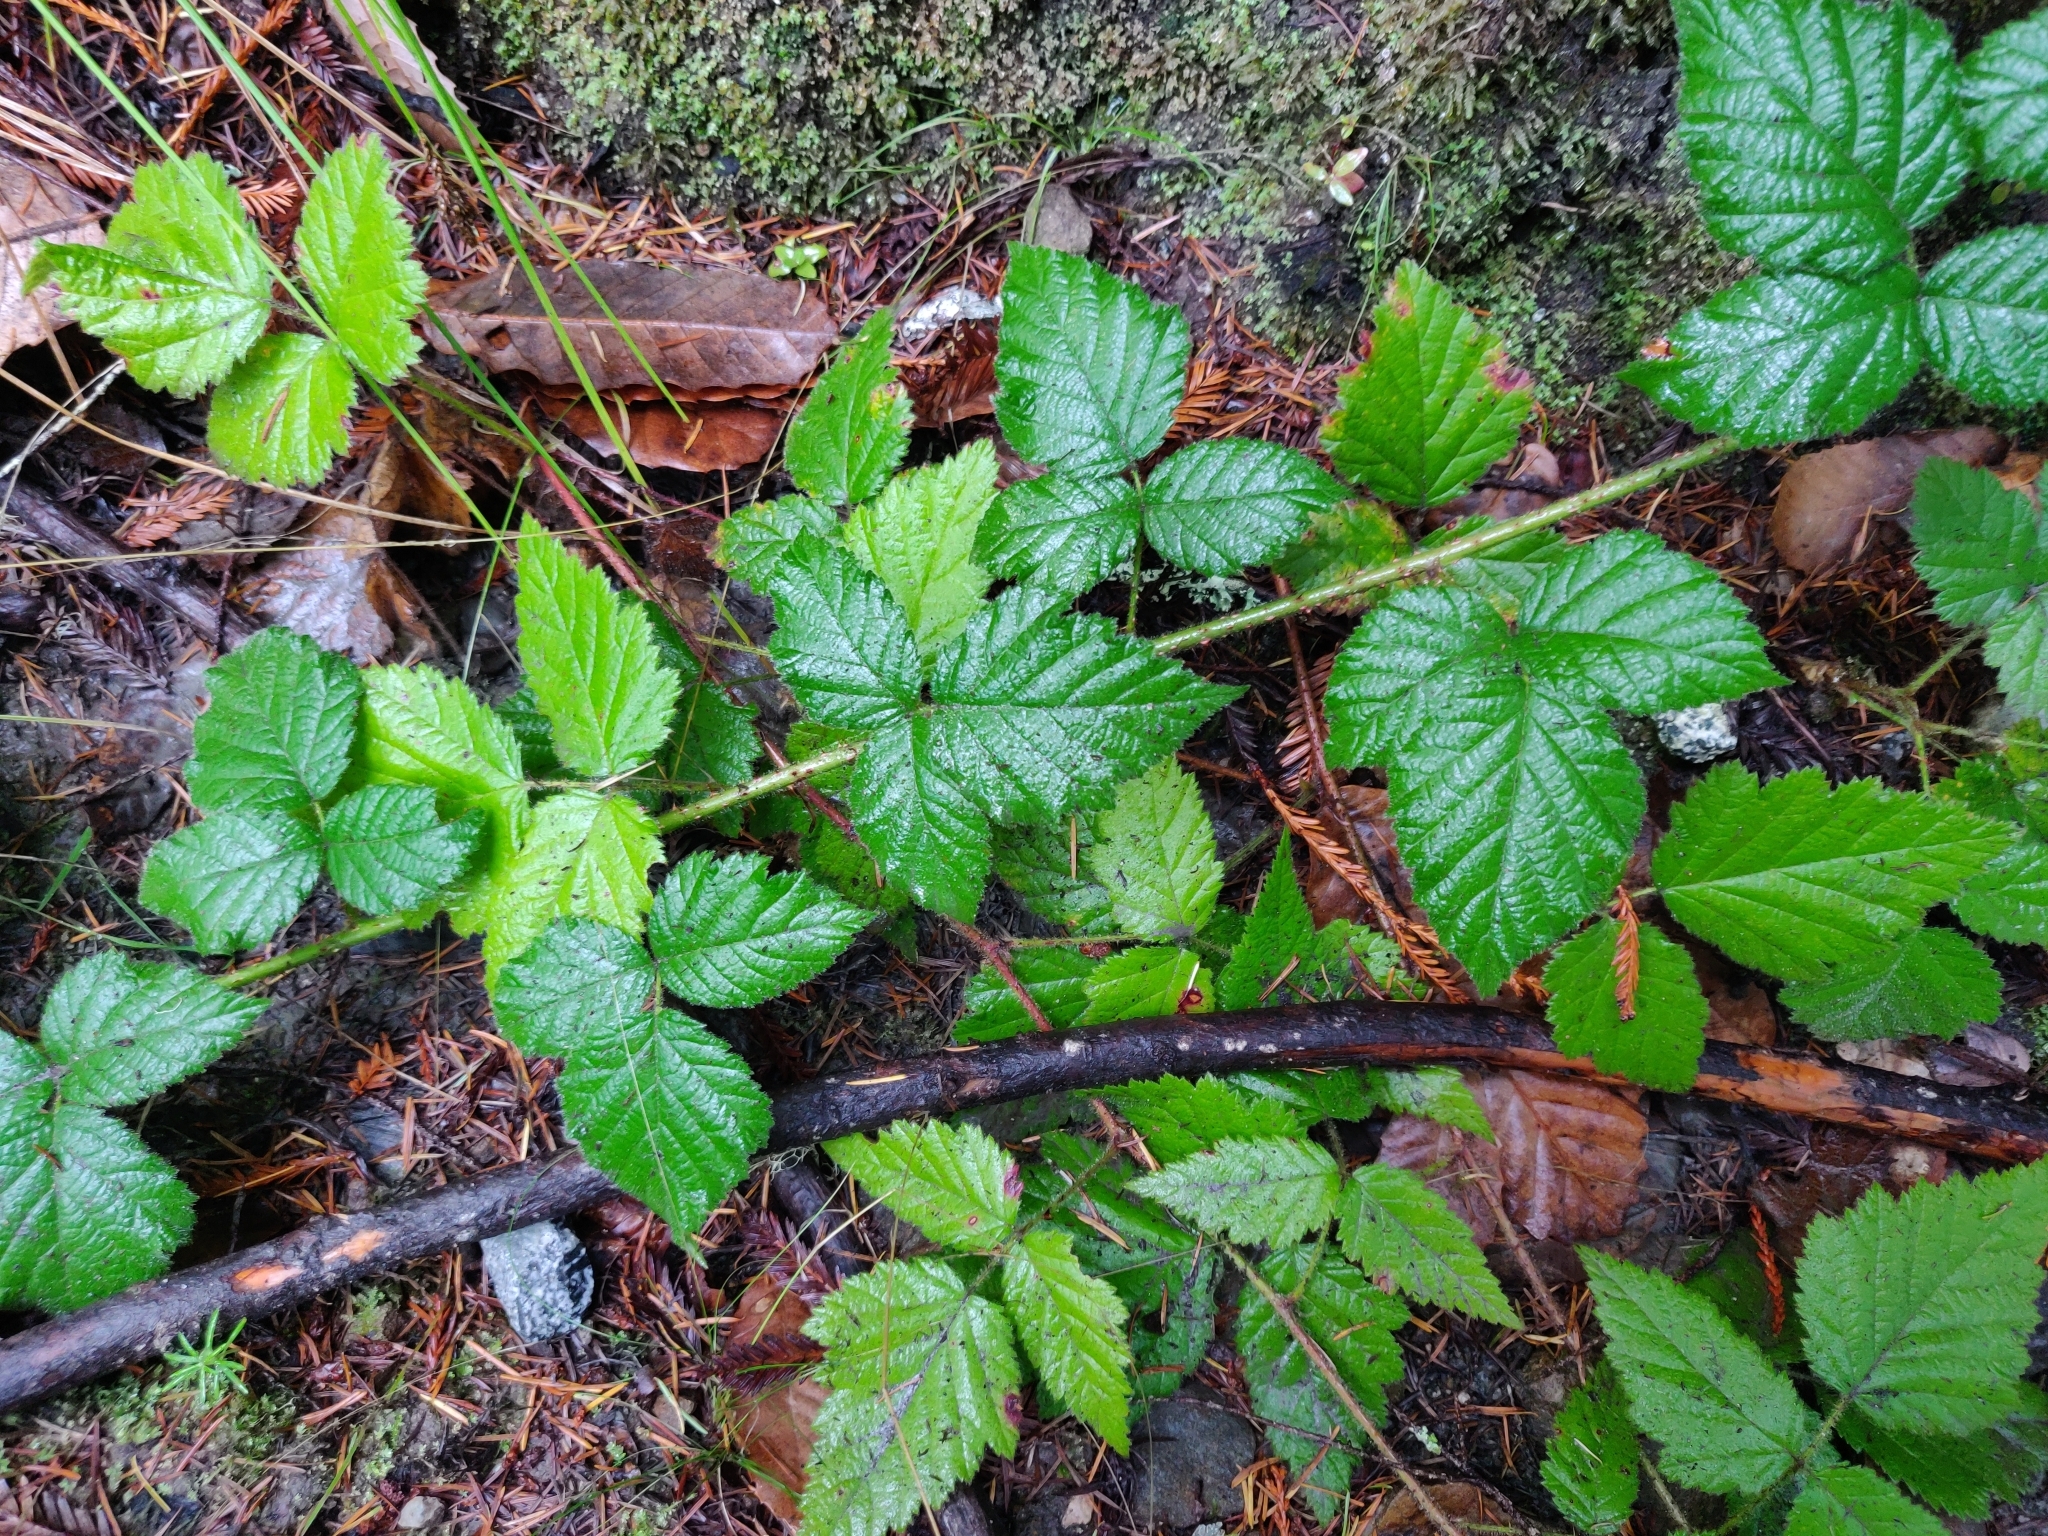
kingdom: Plantae
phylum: Tracheophyta
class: Magnoliopsida
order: Rosales
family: Rosaceae
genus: Rubus
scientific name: Rubus ursinus
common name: Pacific blackberry
